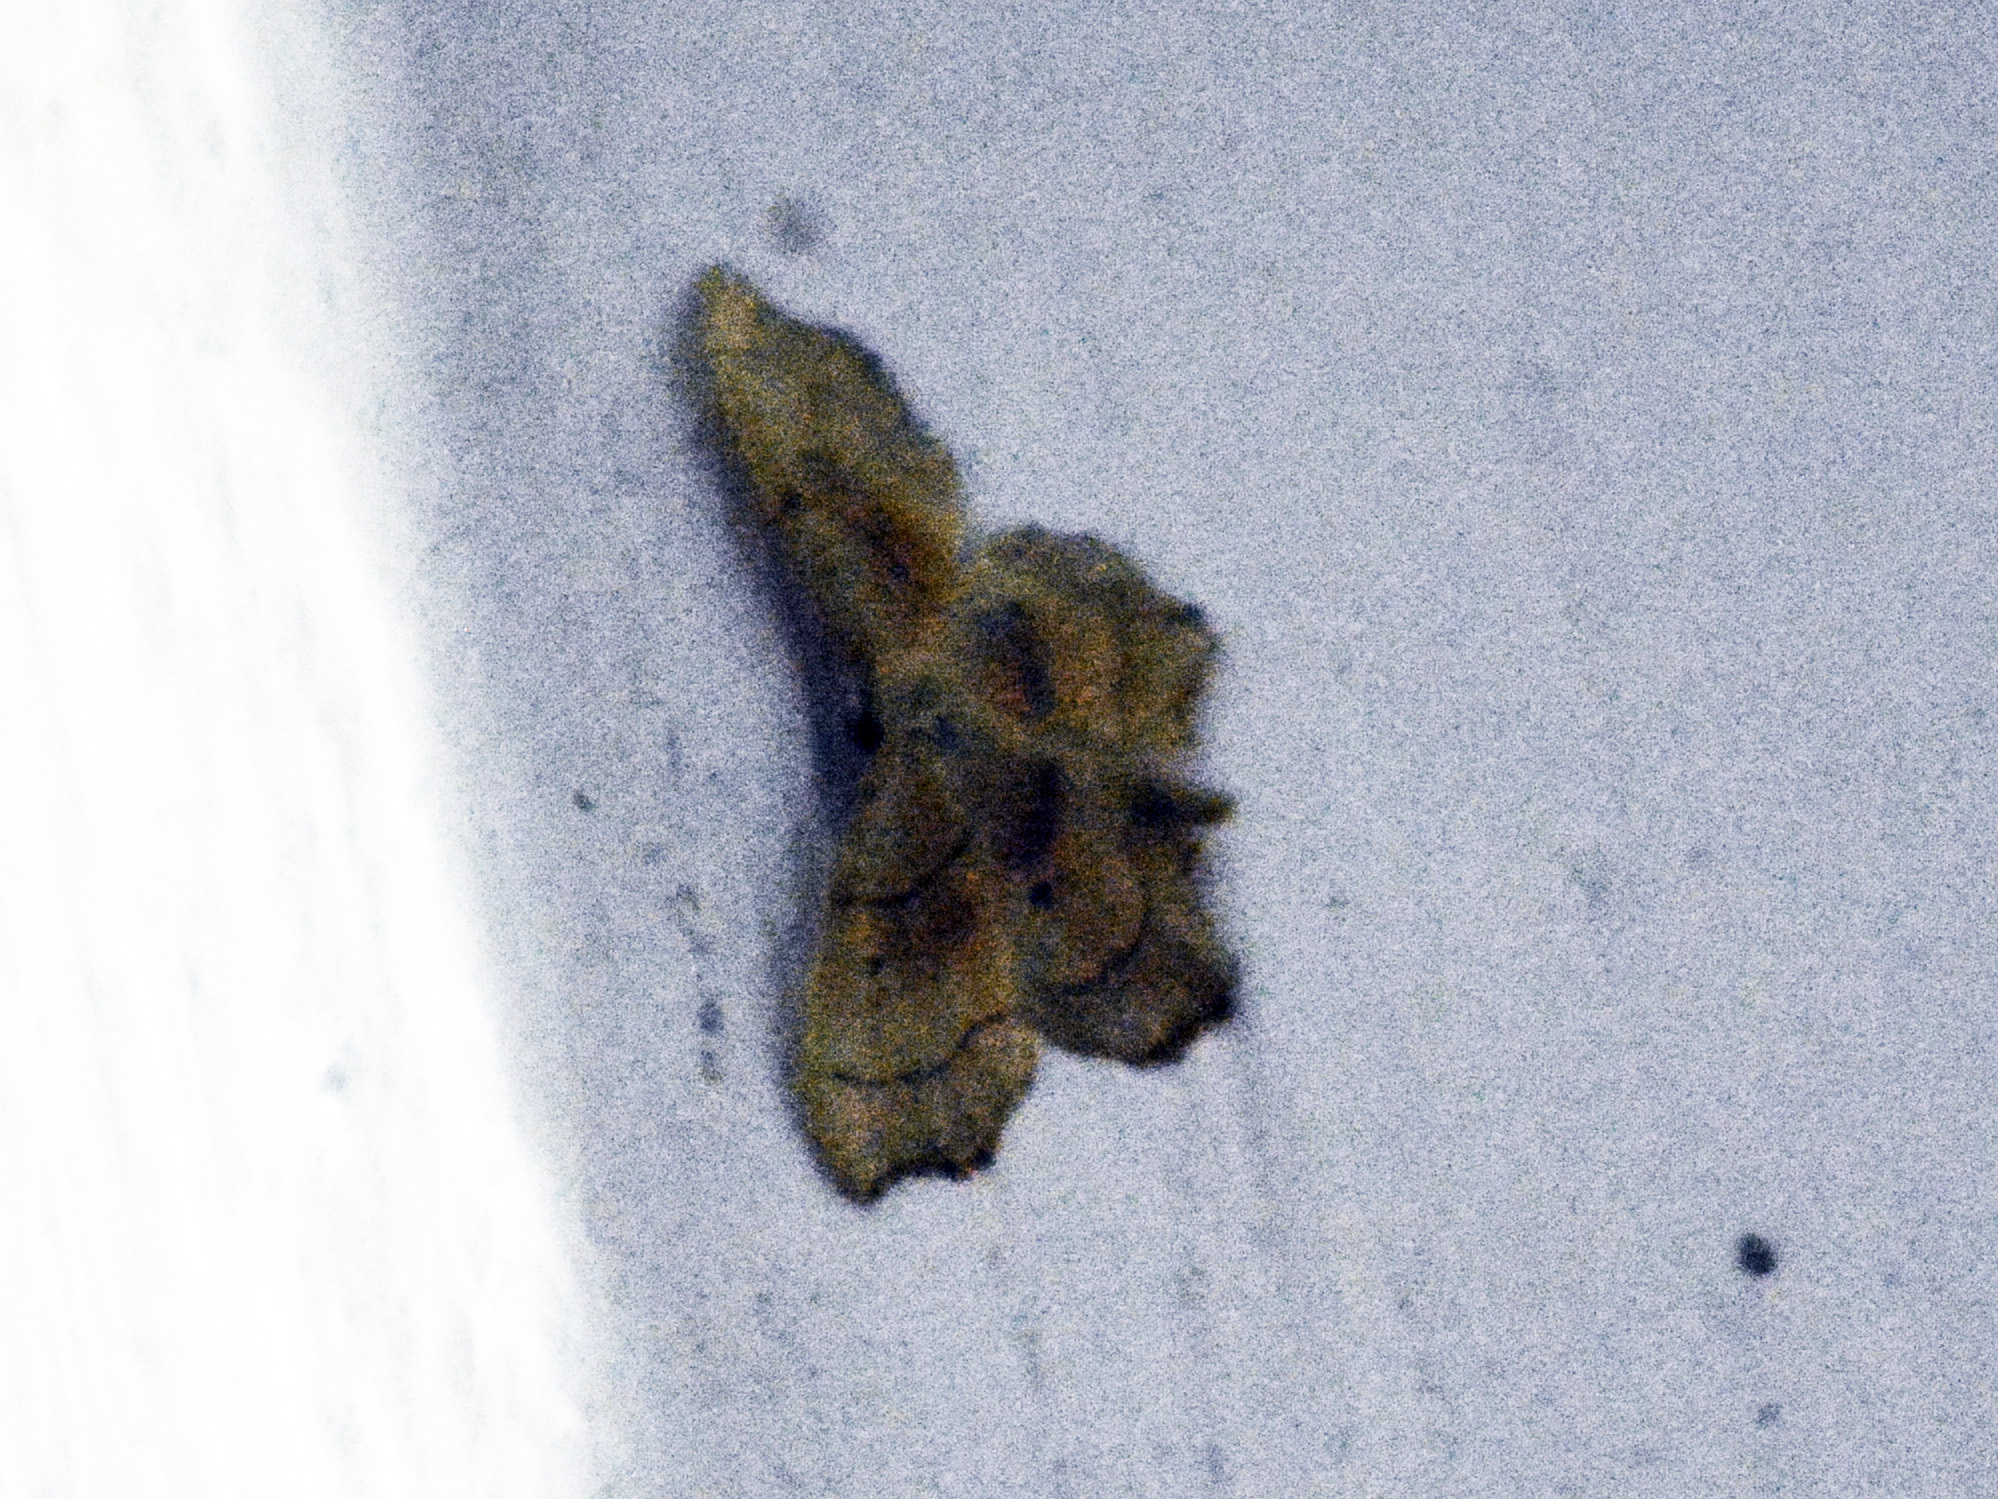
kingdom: Animalia
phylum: Arthropoda
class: Insecta
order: Lepidoptera
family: Geometridae
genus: Idaea
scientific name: Idaea emarginata
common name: Small scallop
